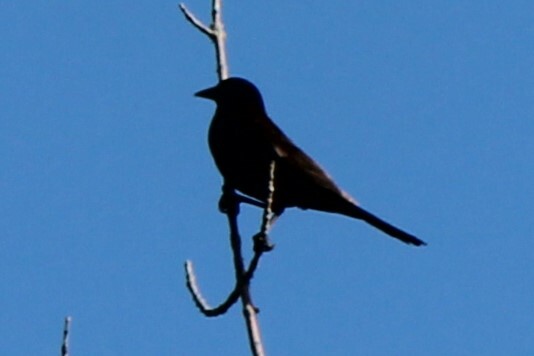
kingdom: Animalia
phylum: Chordata
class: Aves
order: Passeriformes
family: Icteridae
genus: Quiscalus
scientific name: Quiscalus quiscula
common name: Common grackle
